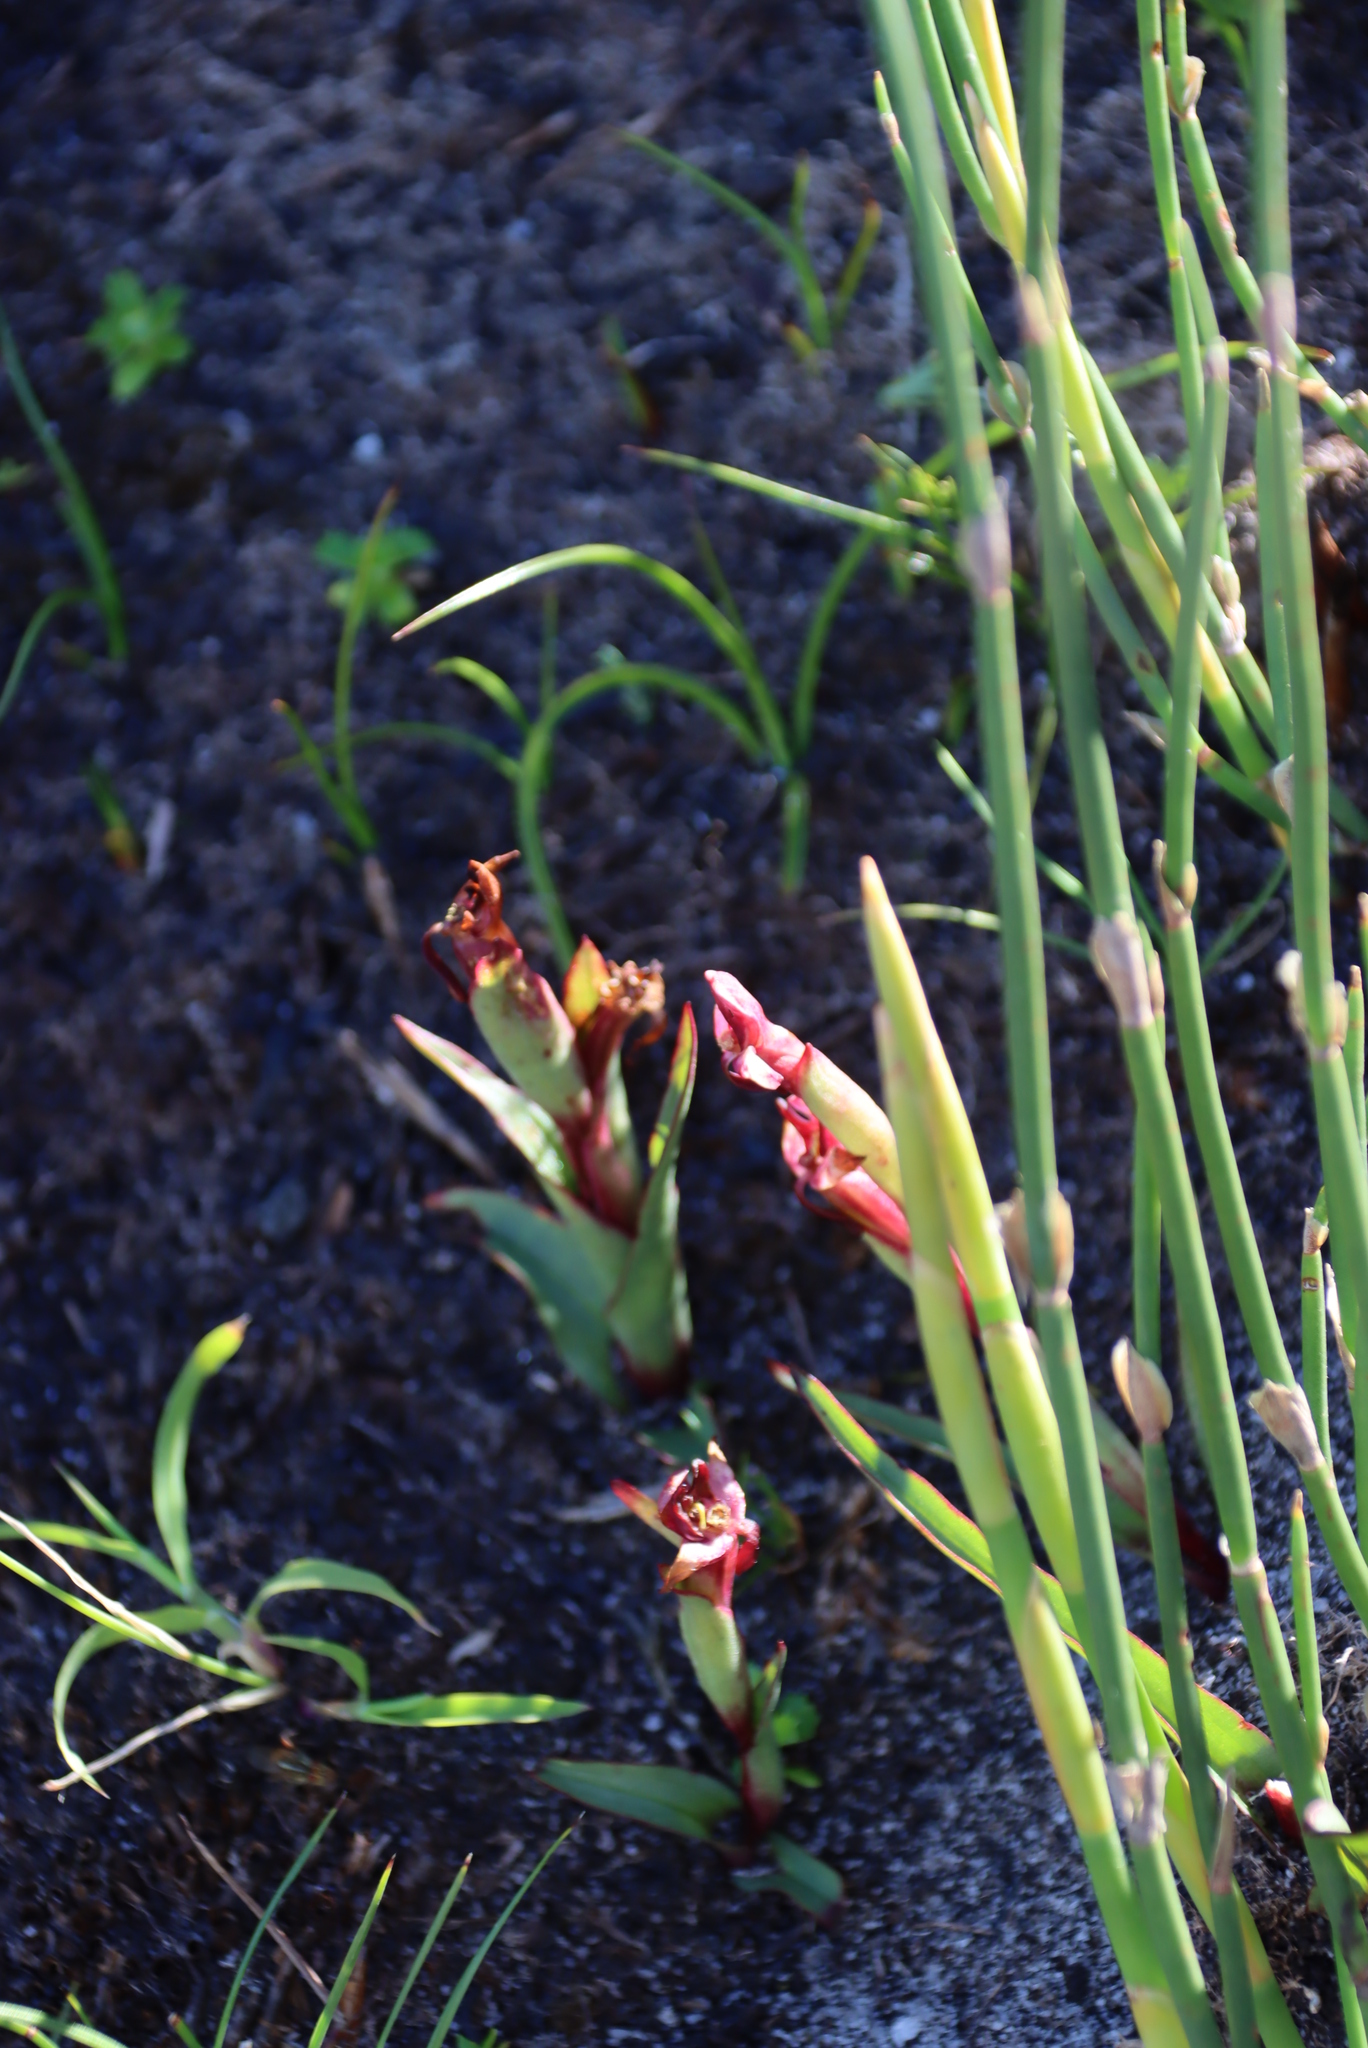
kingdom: Plantae
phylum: Tracheophyta
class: Liliopsida
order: Asparagales
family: Orchidaceae
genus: Disa
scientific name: Disa ophrydea
